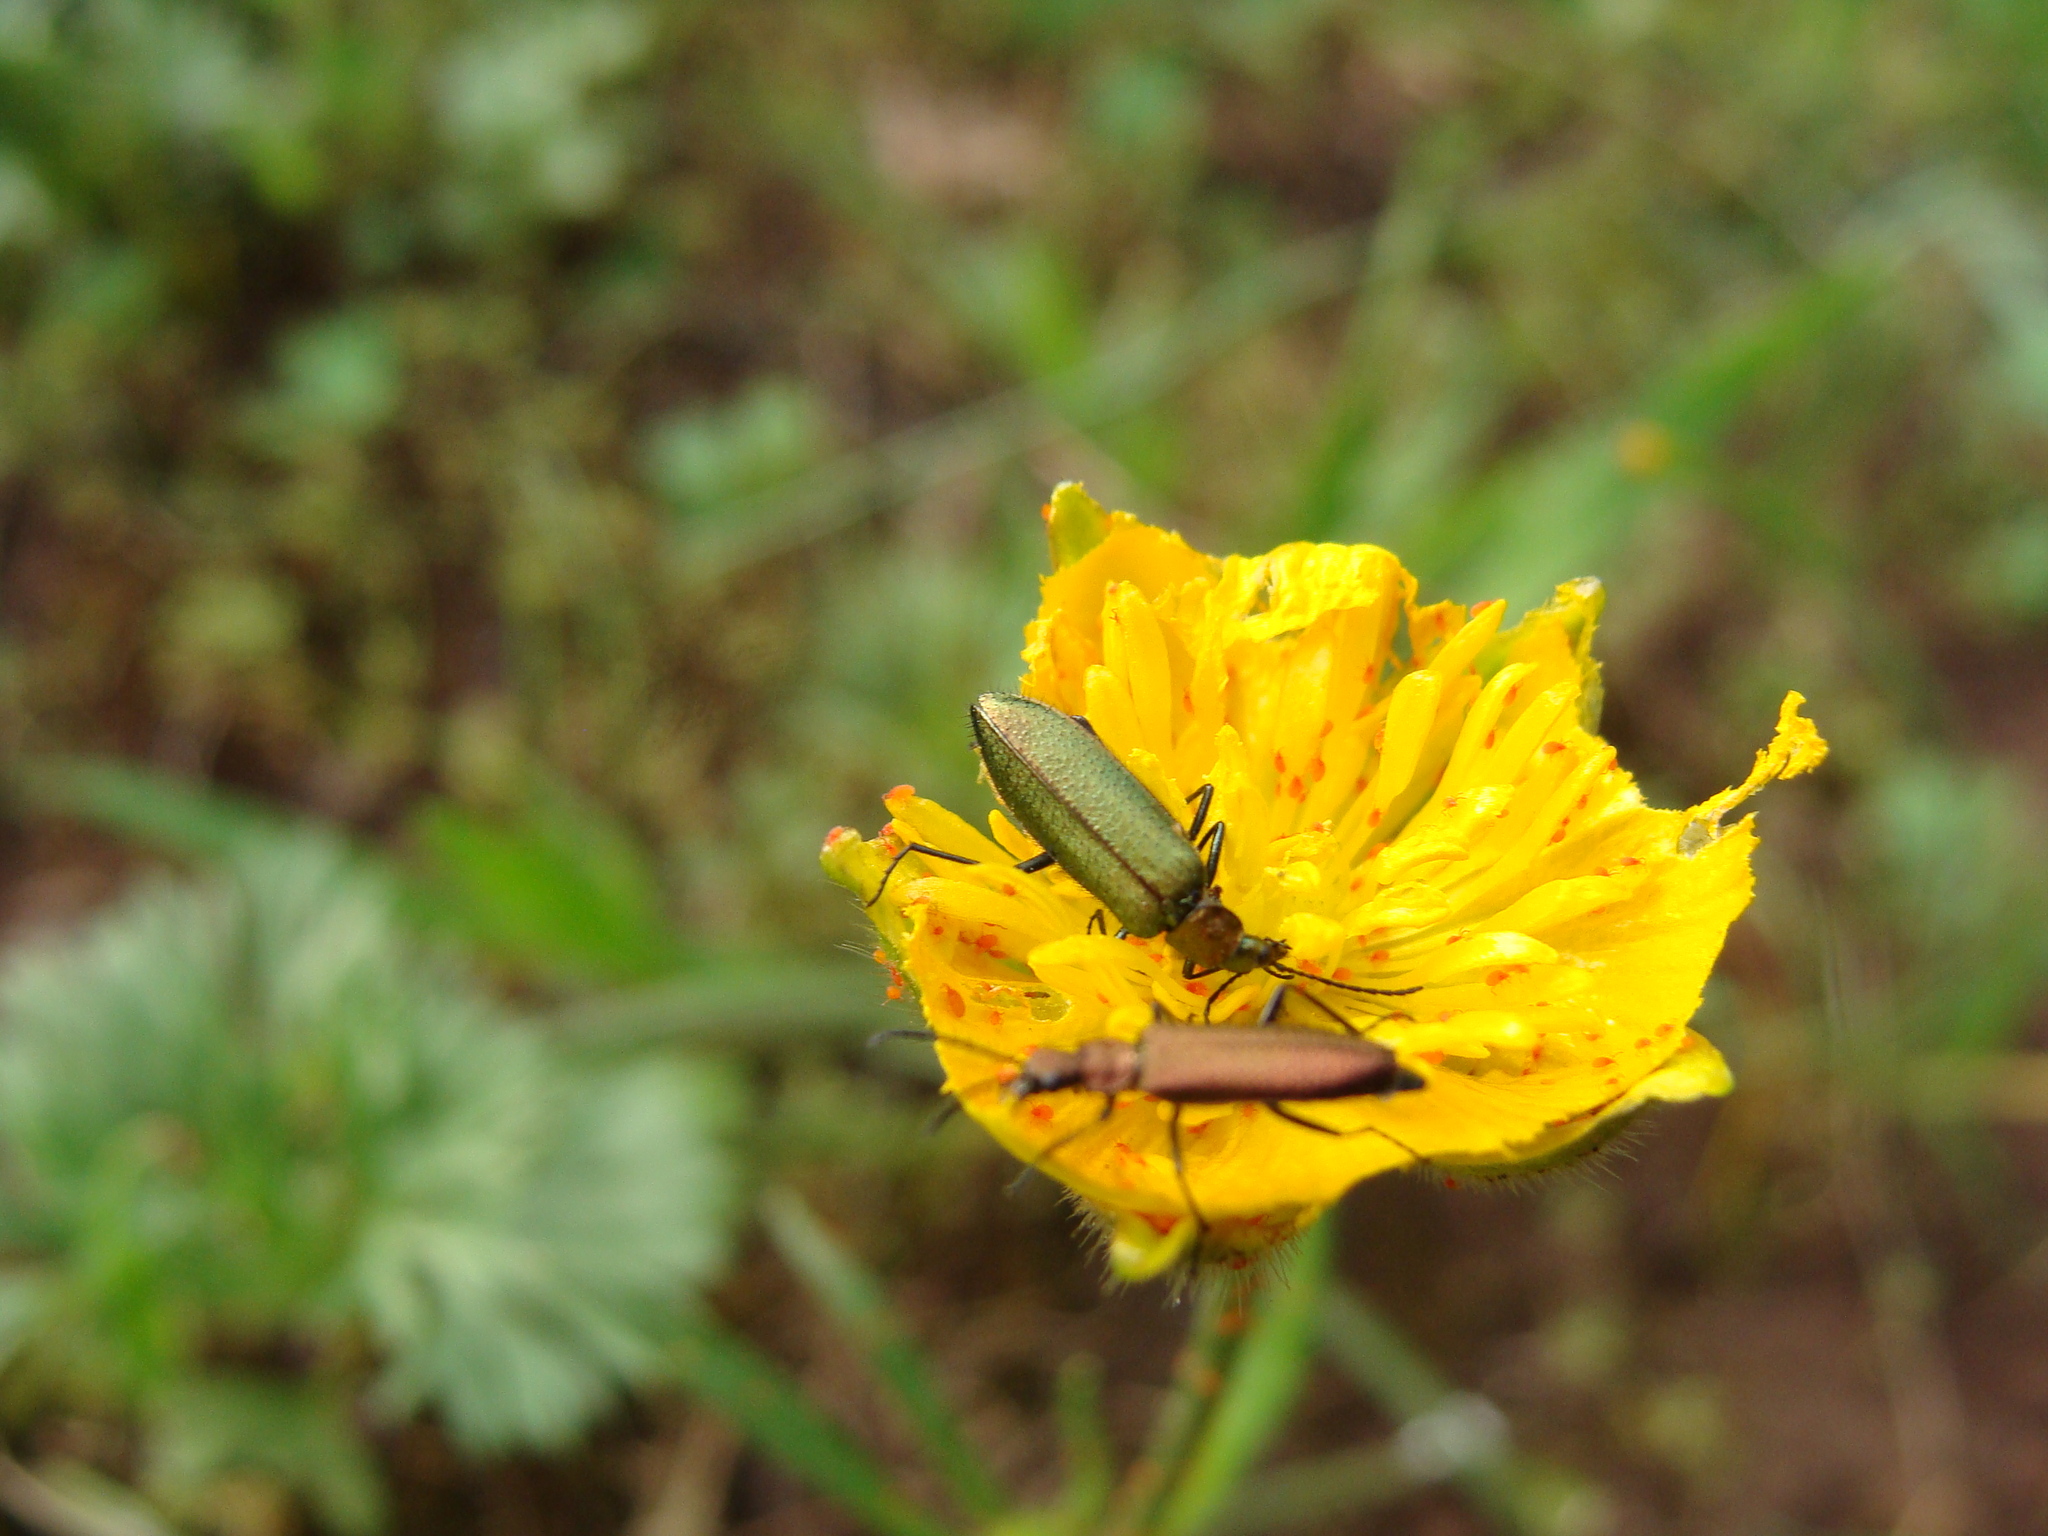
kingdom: Animalia
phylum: Arthropoda
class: Insecta
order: Coleoptera
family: Stenotrachelidae
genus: Stenotrachelus
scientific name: Stenotrachelus aeneus
